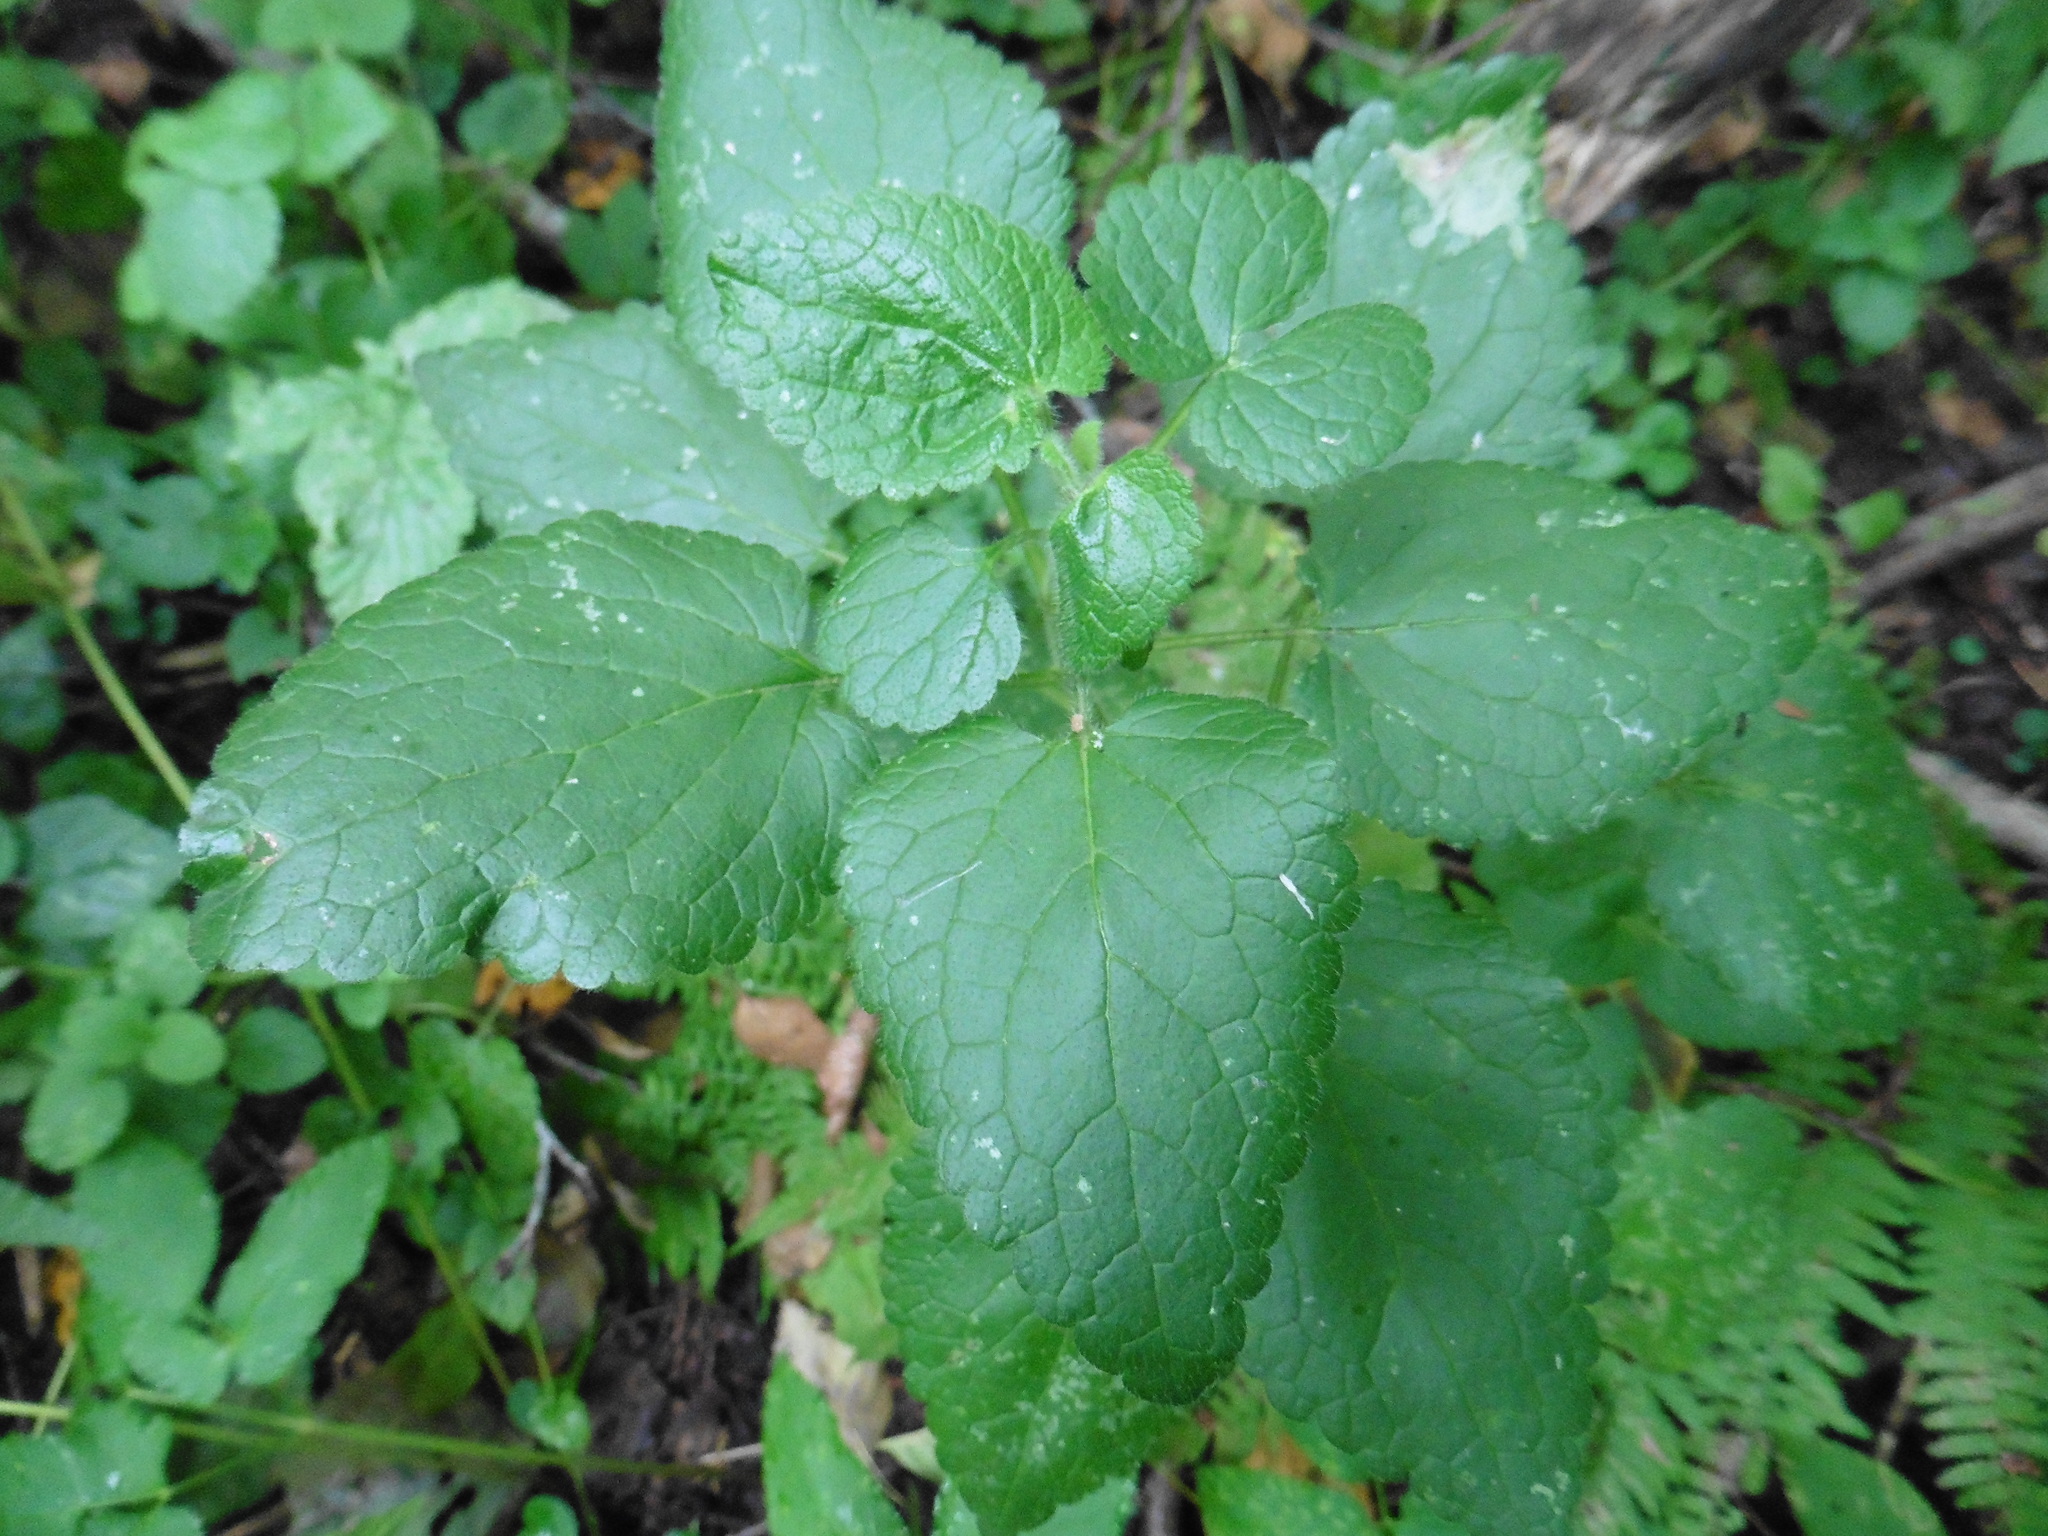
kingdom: Plantae
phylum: Tracheophyta
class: Magnoliopsida
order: Lamiales
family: Lamiaceae
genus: Lamium
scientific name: Lamium maculatum
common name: Spotted dead-nettle
